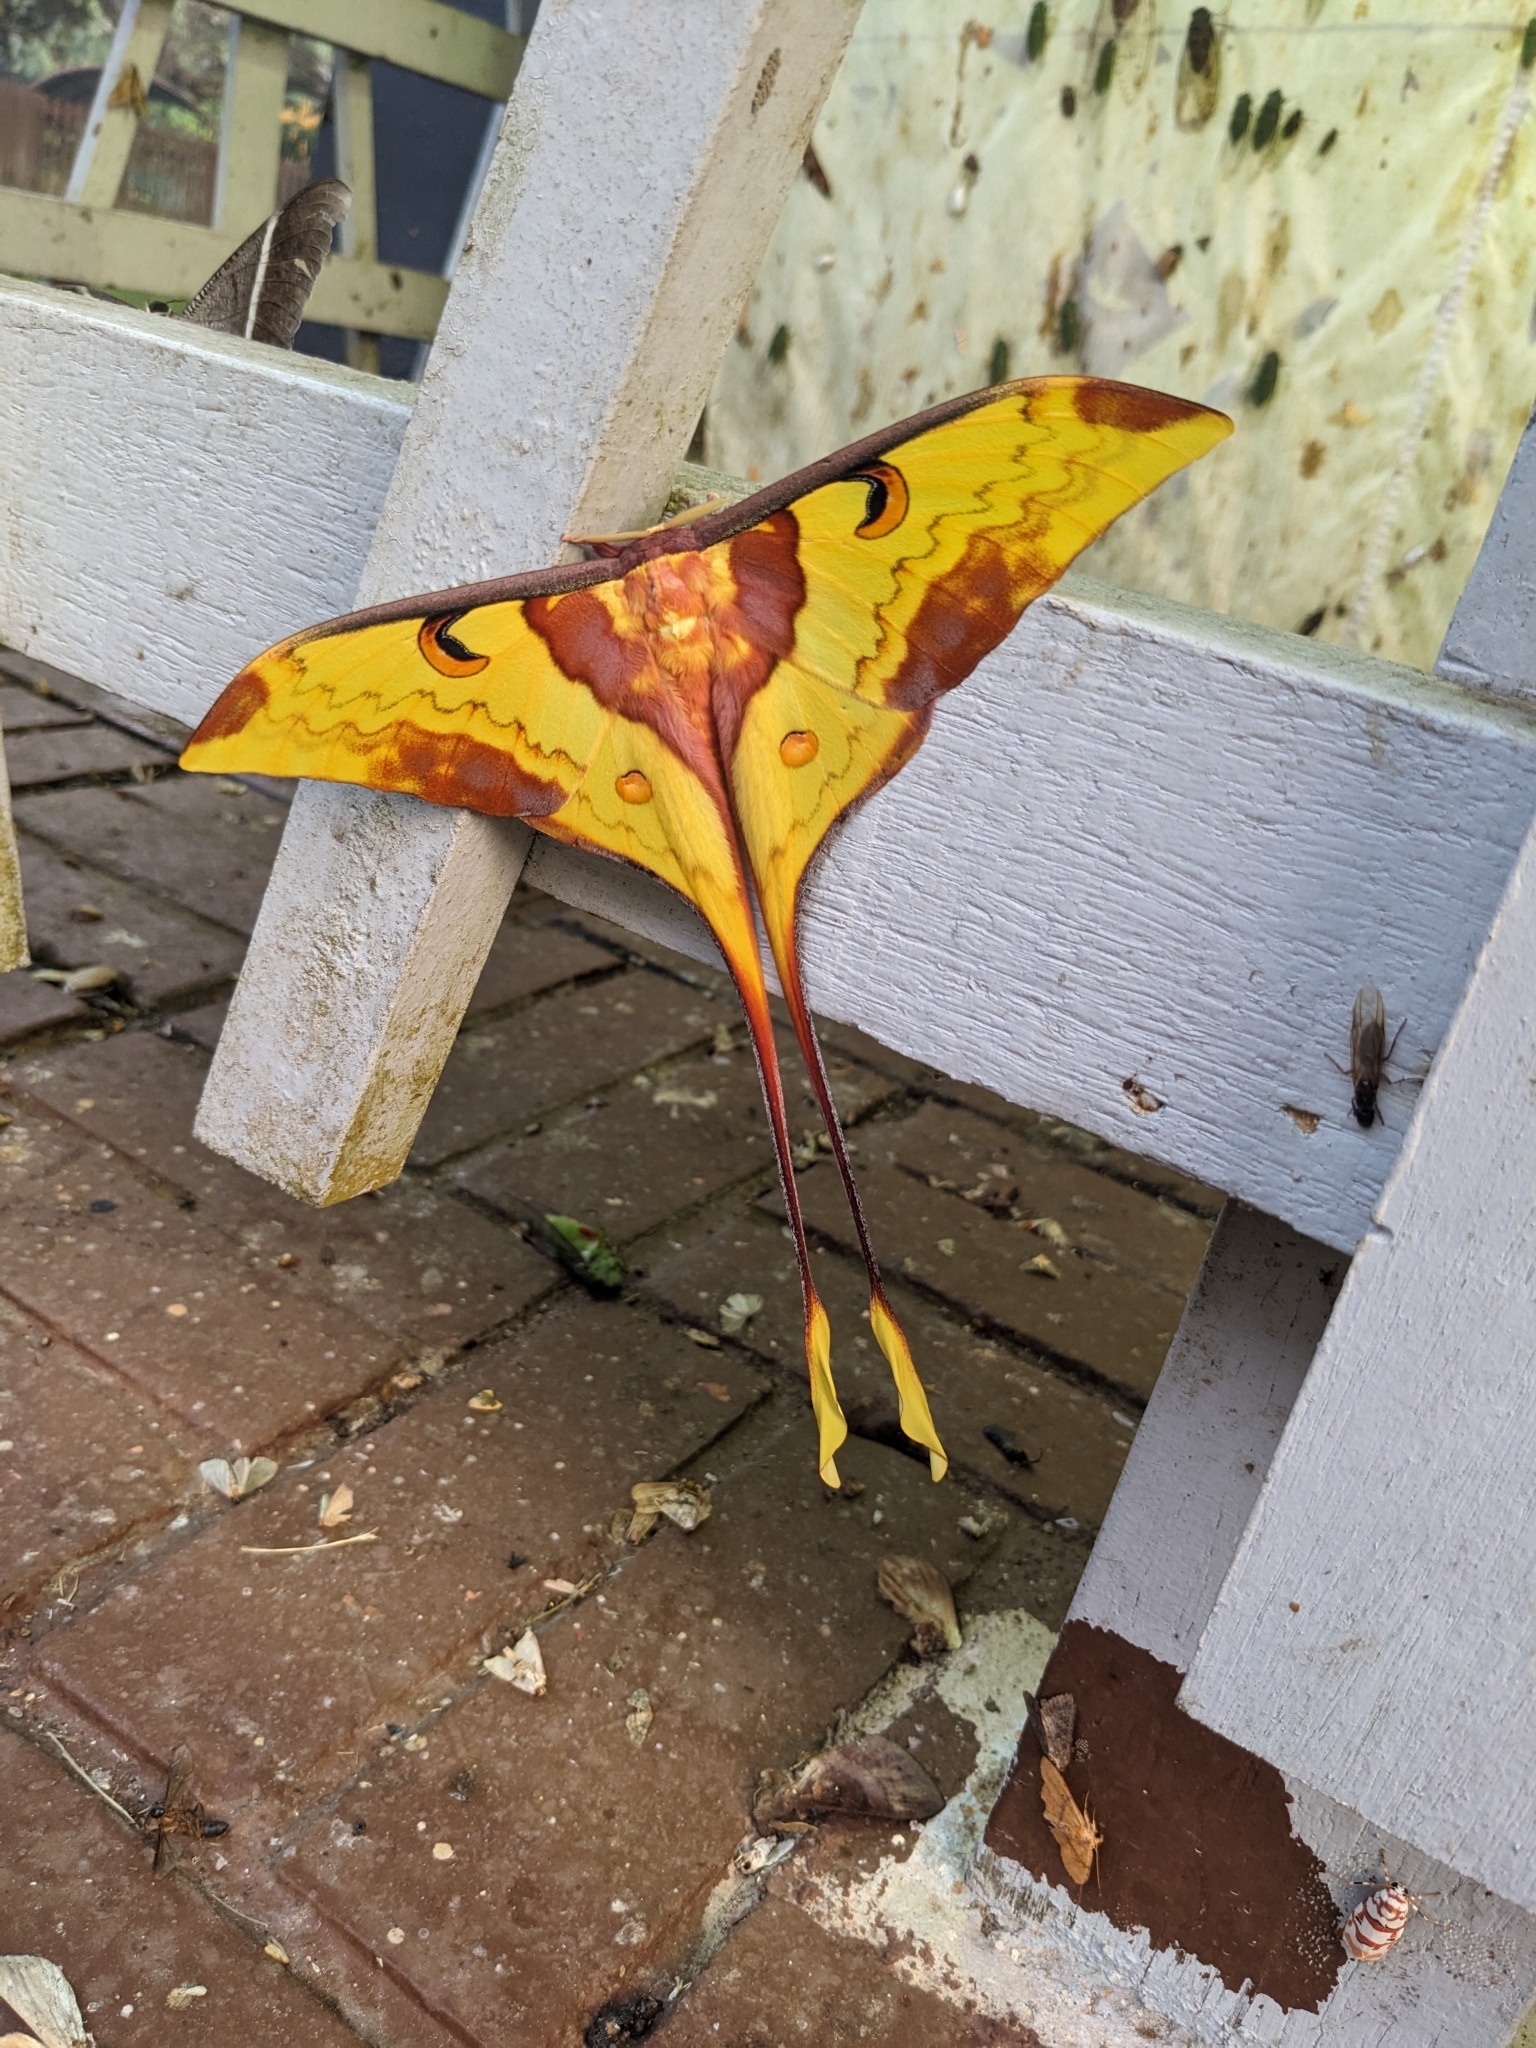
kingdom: Animalia
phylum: Arthropoda
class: Insecta
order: Lepidoptera
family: Saturniidae
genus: Actias
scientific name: Actias maenas
